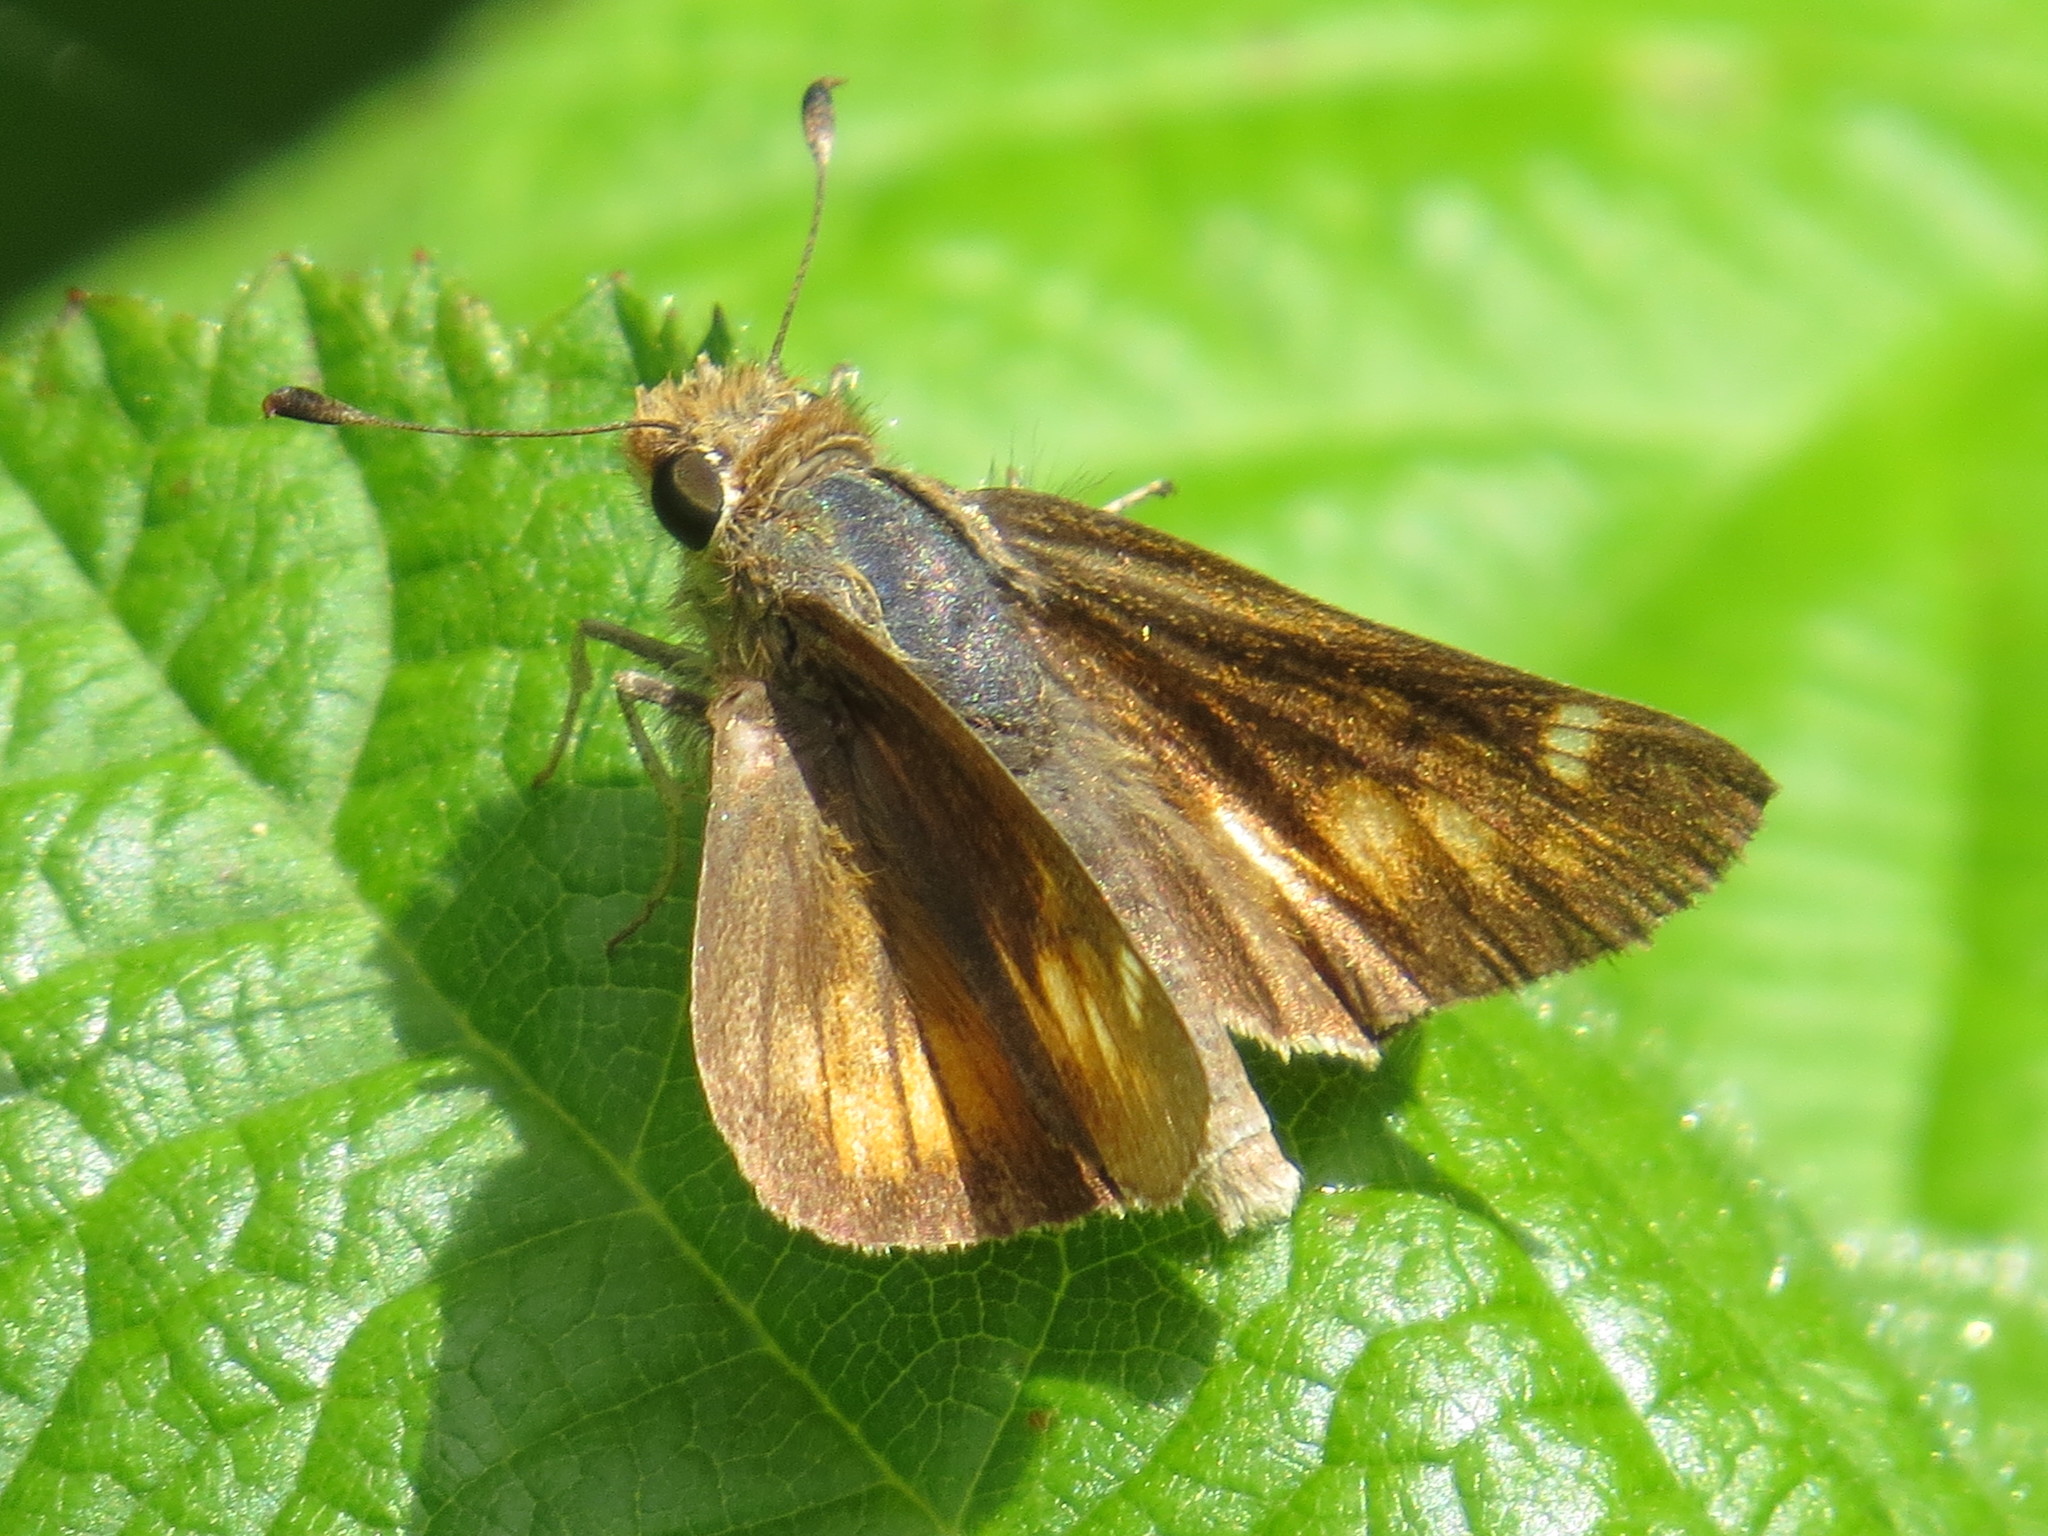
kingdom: Animalia
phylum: Arthropoda
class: Insecta
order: Lepidoptera
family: Hesperiidae
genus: Lon
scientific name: Lon melane
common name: Umber skipper
